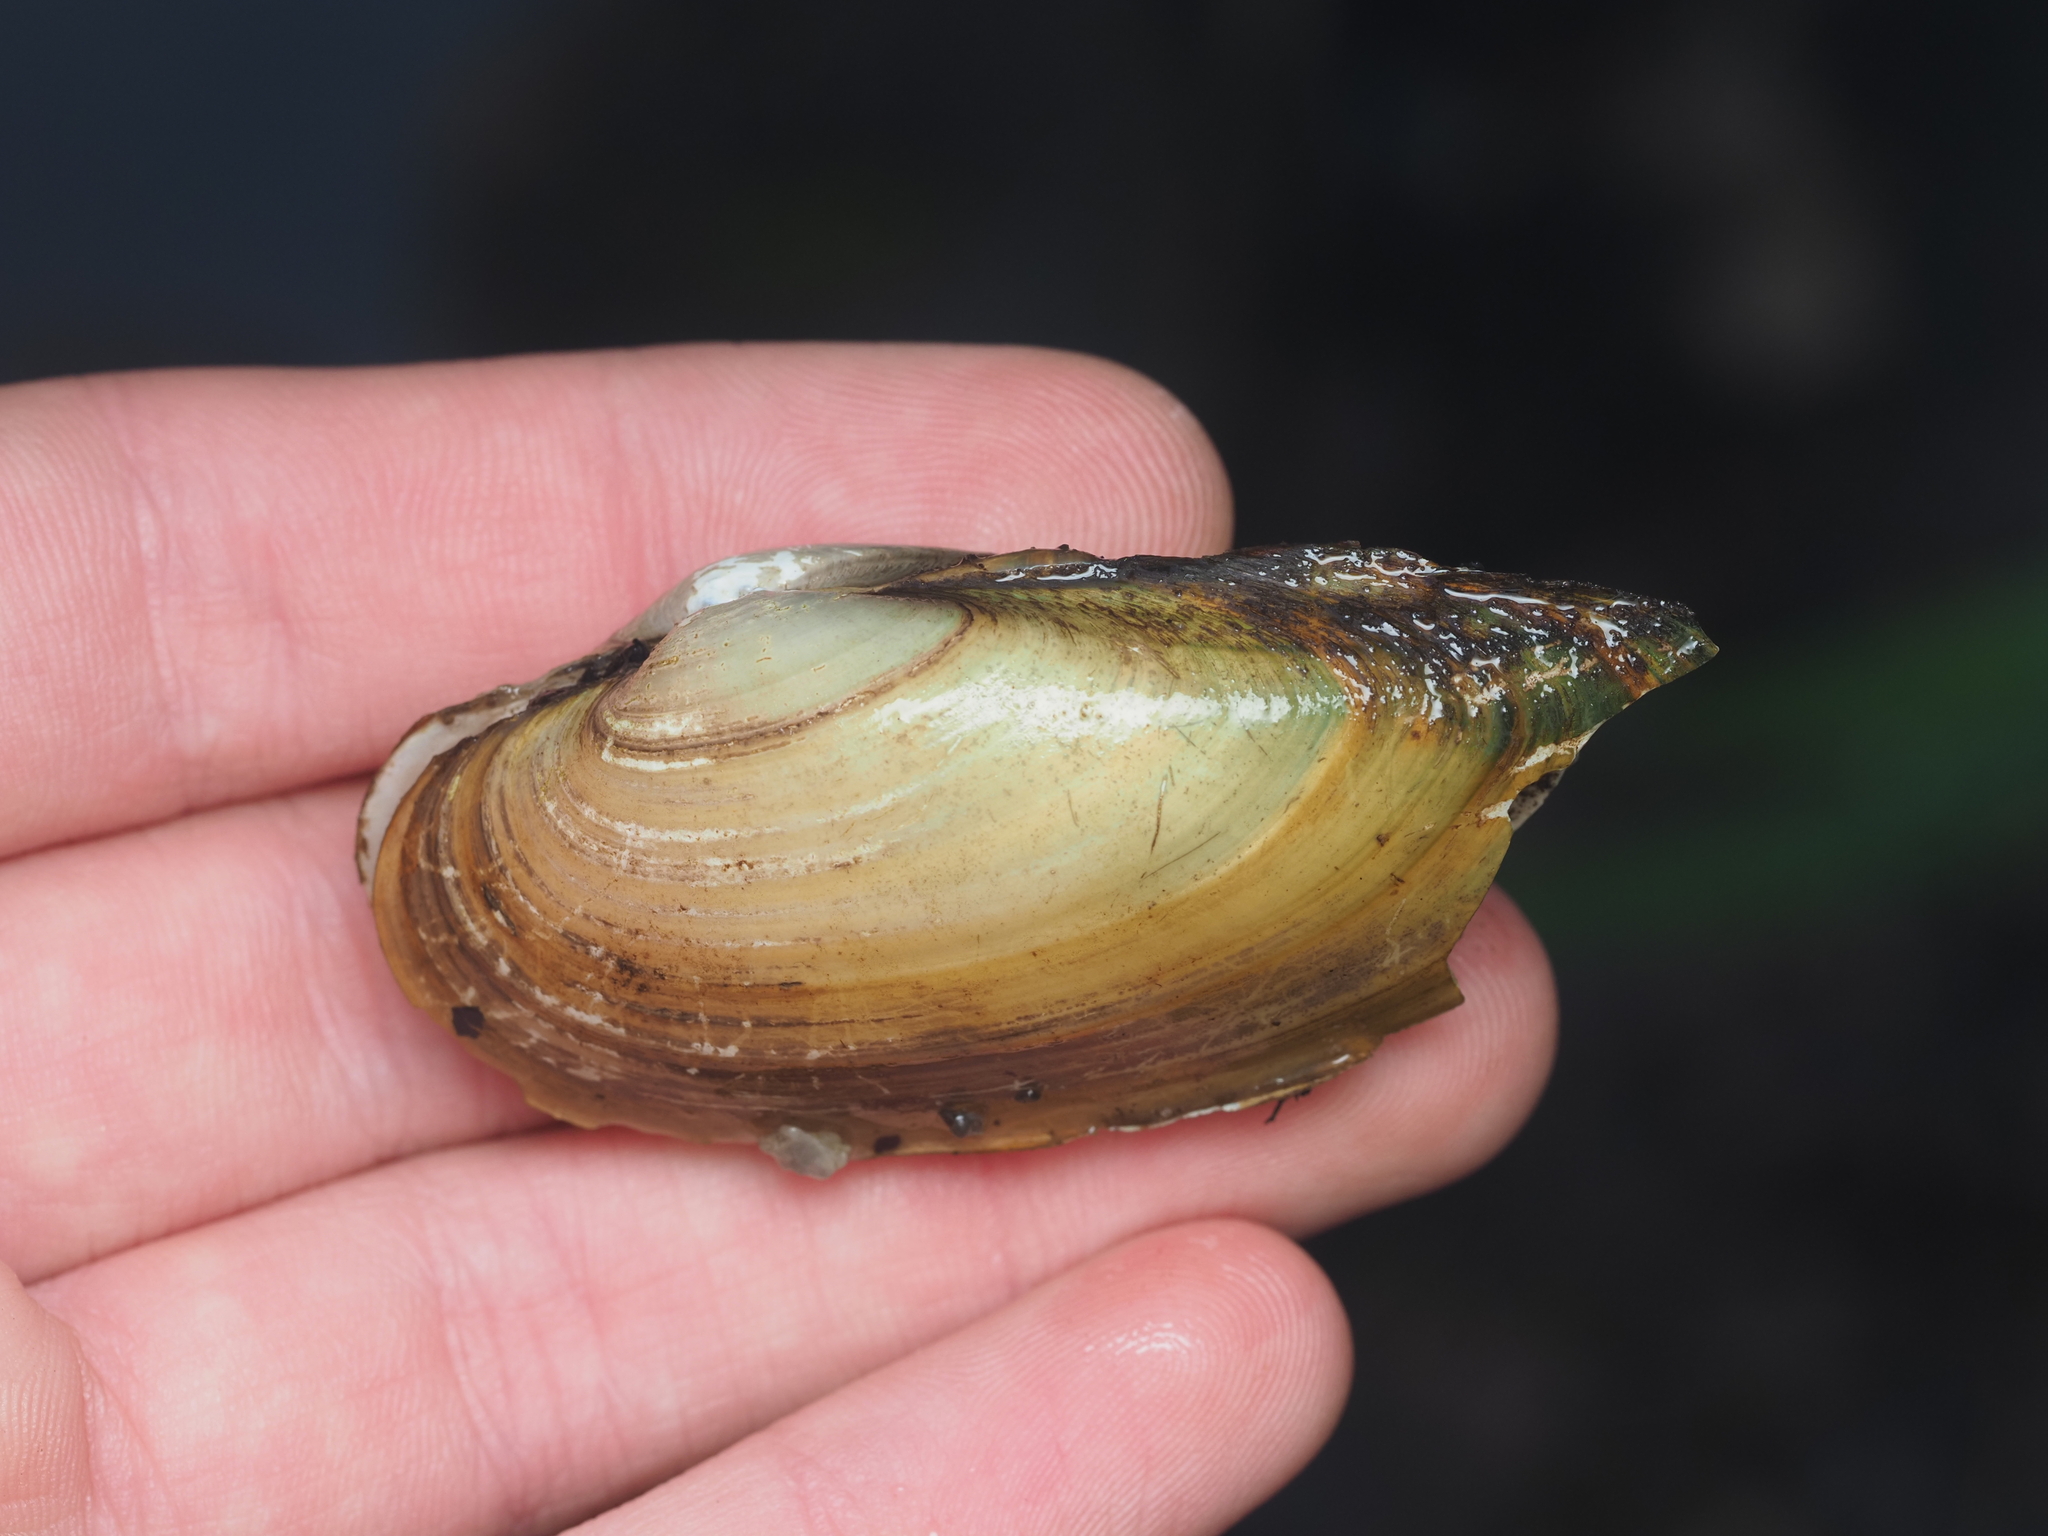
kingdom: Animalia
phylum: Mollusca
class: Bivalvia
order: Unionida
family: Unionidae
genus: Unio
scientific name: Unio pictorum
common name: Painter's mussel
